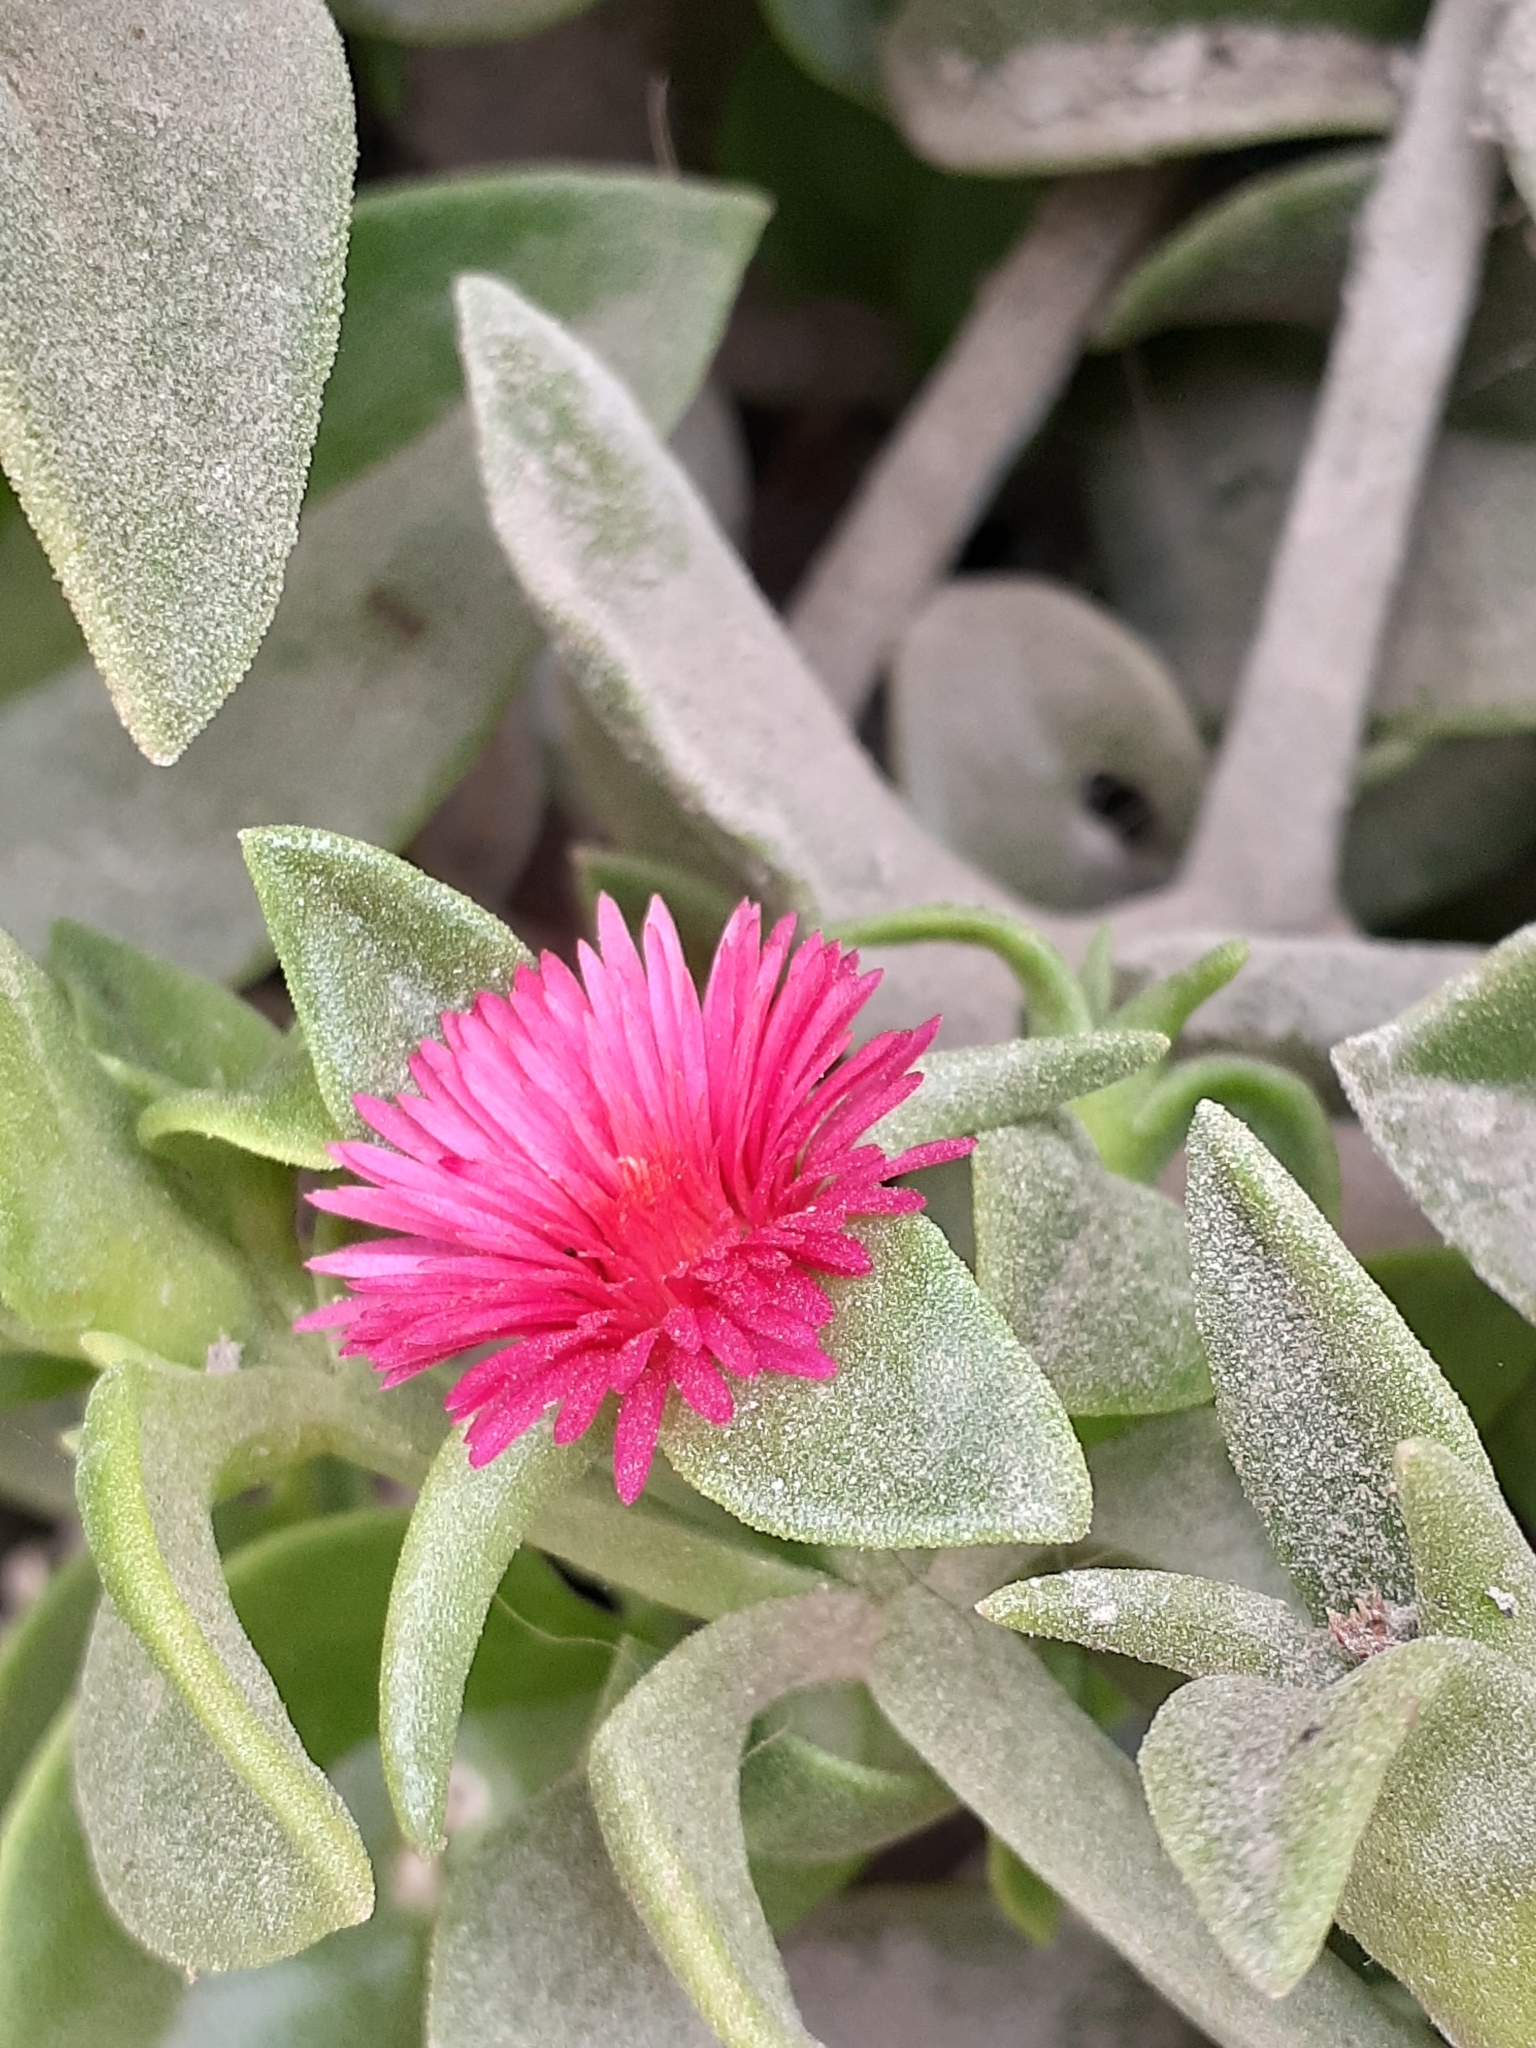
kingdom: Plantae
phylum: Tracheophyta
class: Magnoliopsida
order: Caryophyllales
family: Aizoaceae
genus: Mesembryanthemum
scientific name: Mesembryanthemum cordifolium
